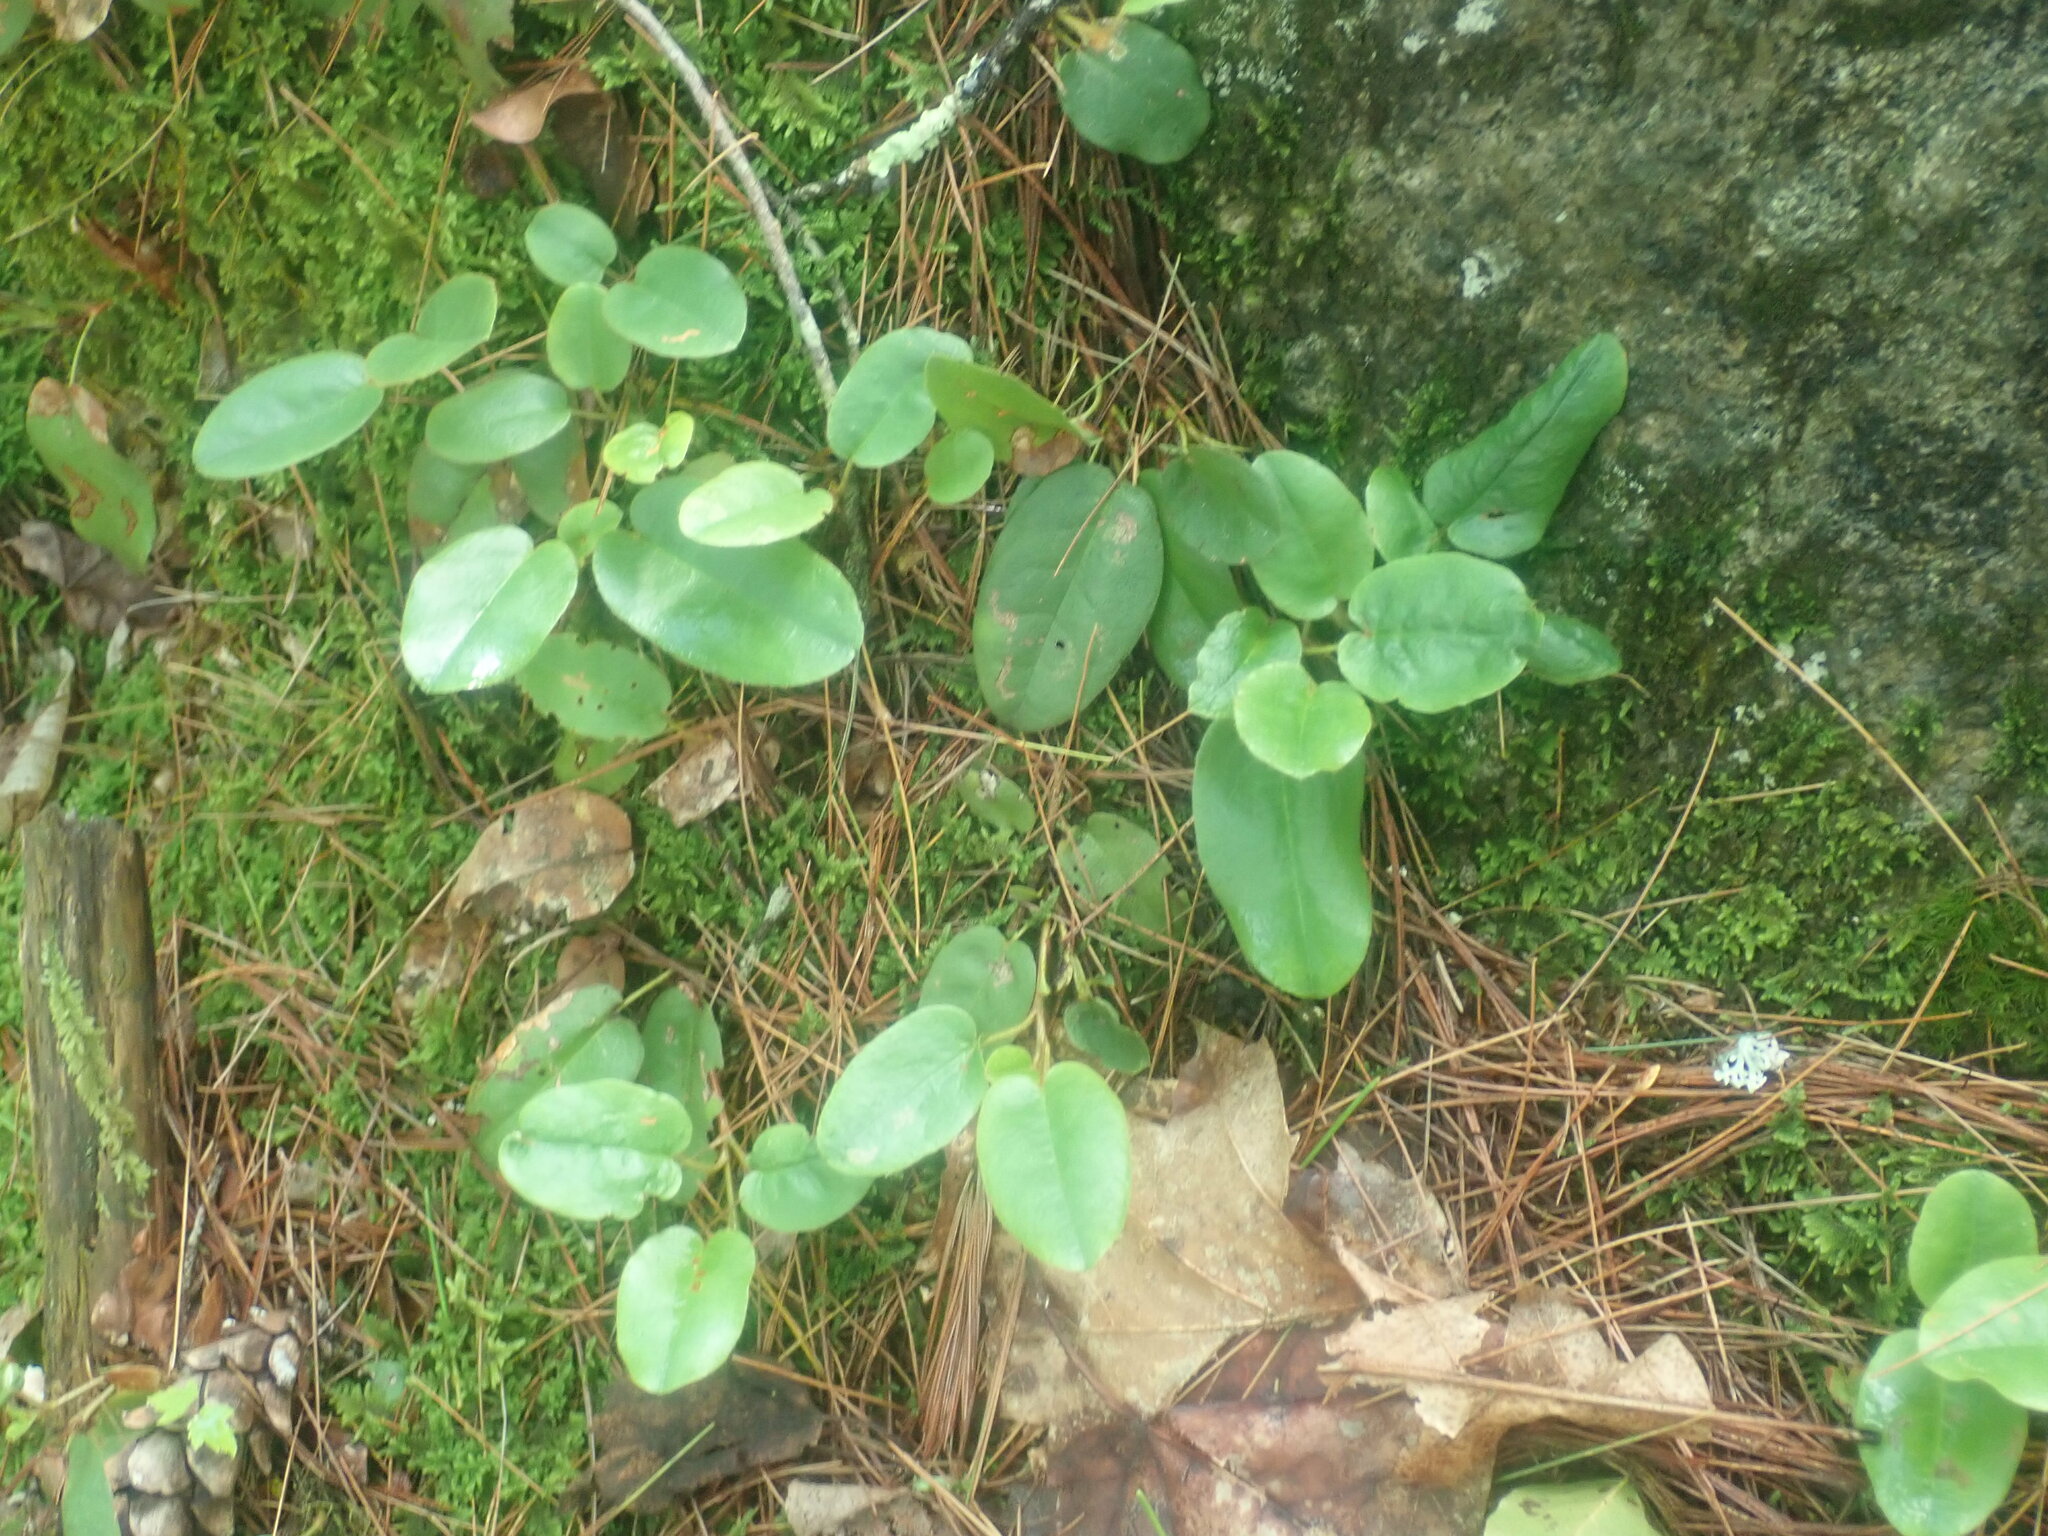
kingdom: Plantae
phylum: Tracheophyta
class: Magnoliopsida
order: Ericales
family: Ericaceae
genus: Epigaea
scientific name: Epigaea repens
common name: Gravelroot
